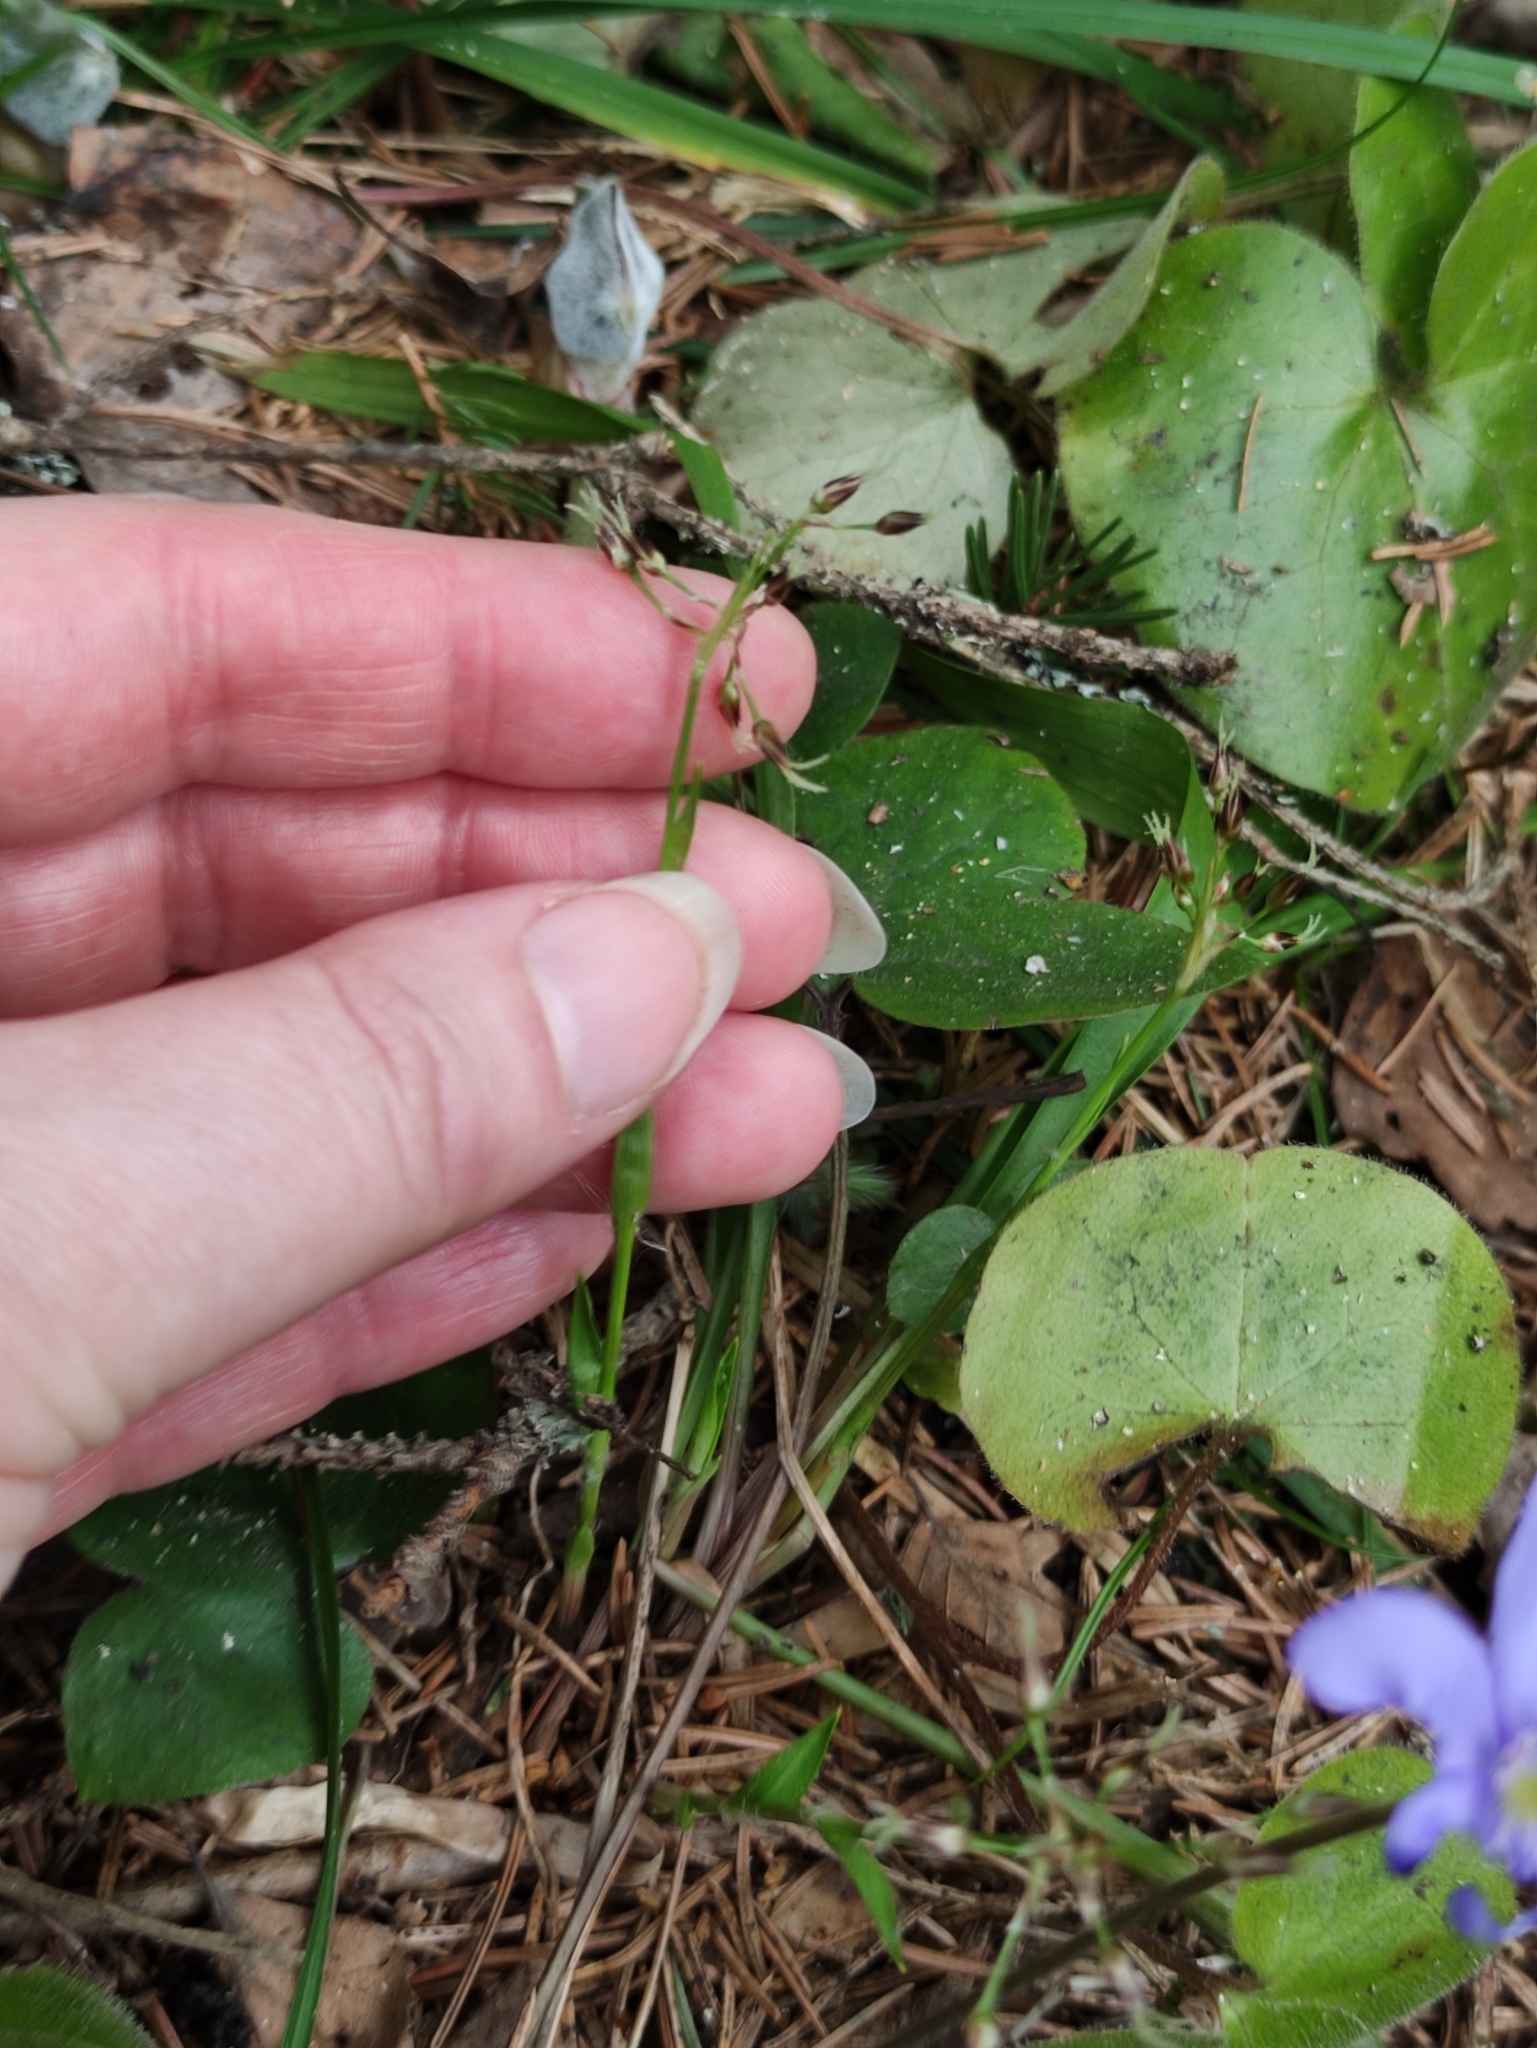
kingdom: Plantae
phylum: Tracheophyta
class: Liliopsida
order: Poales
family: Juncaceae
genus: Luzula
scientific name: Luzula pilosa
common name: Hairy wood-rush
